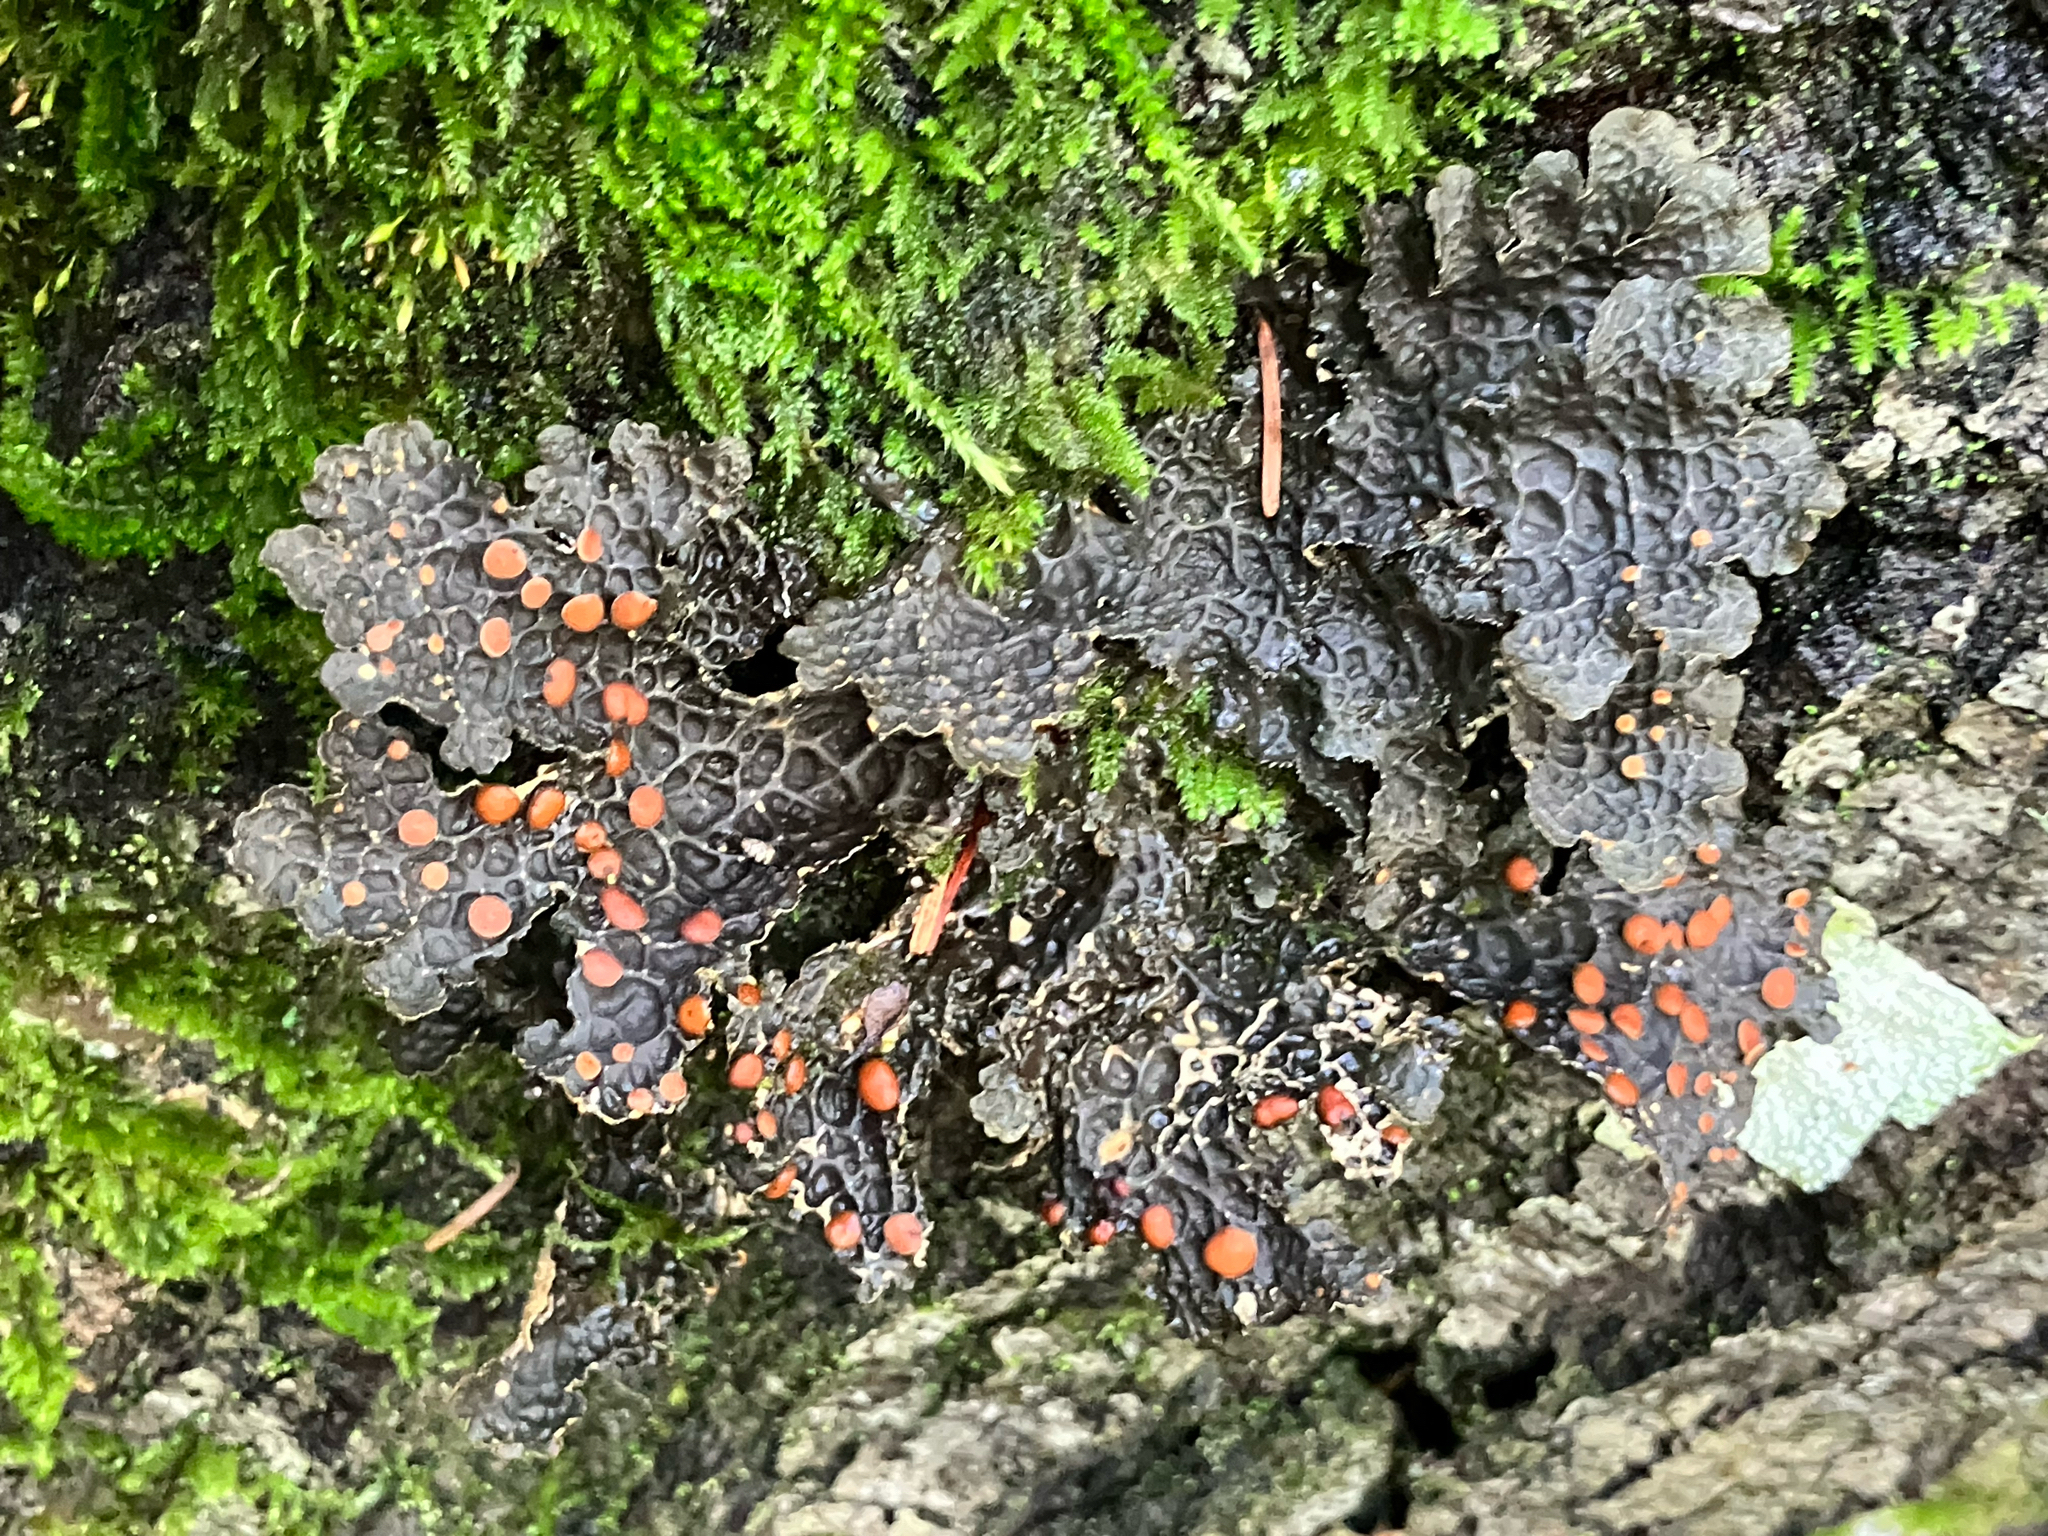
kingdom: Fungi
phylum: Ascomycota
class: Lecanoromycetes
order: Peltigerales
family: Lobariaceae
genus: Lobaria
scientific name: Lobaria anthraspis
